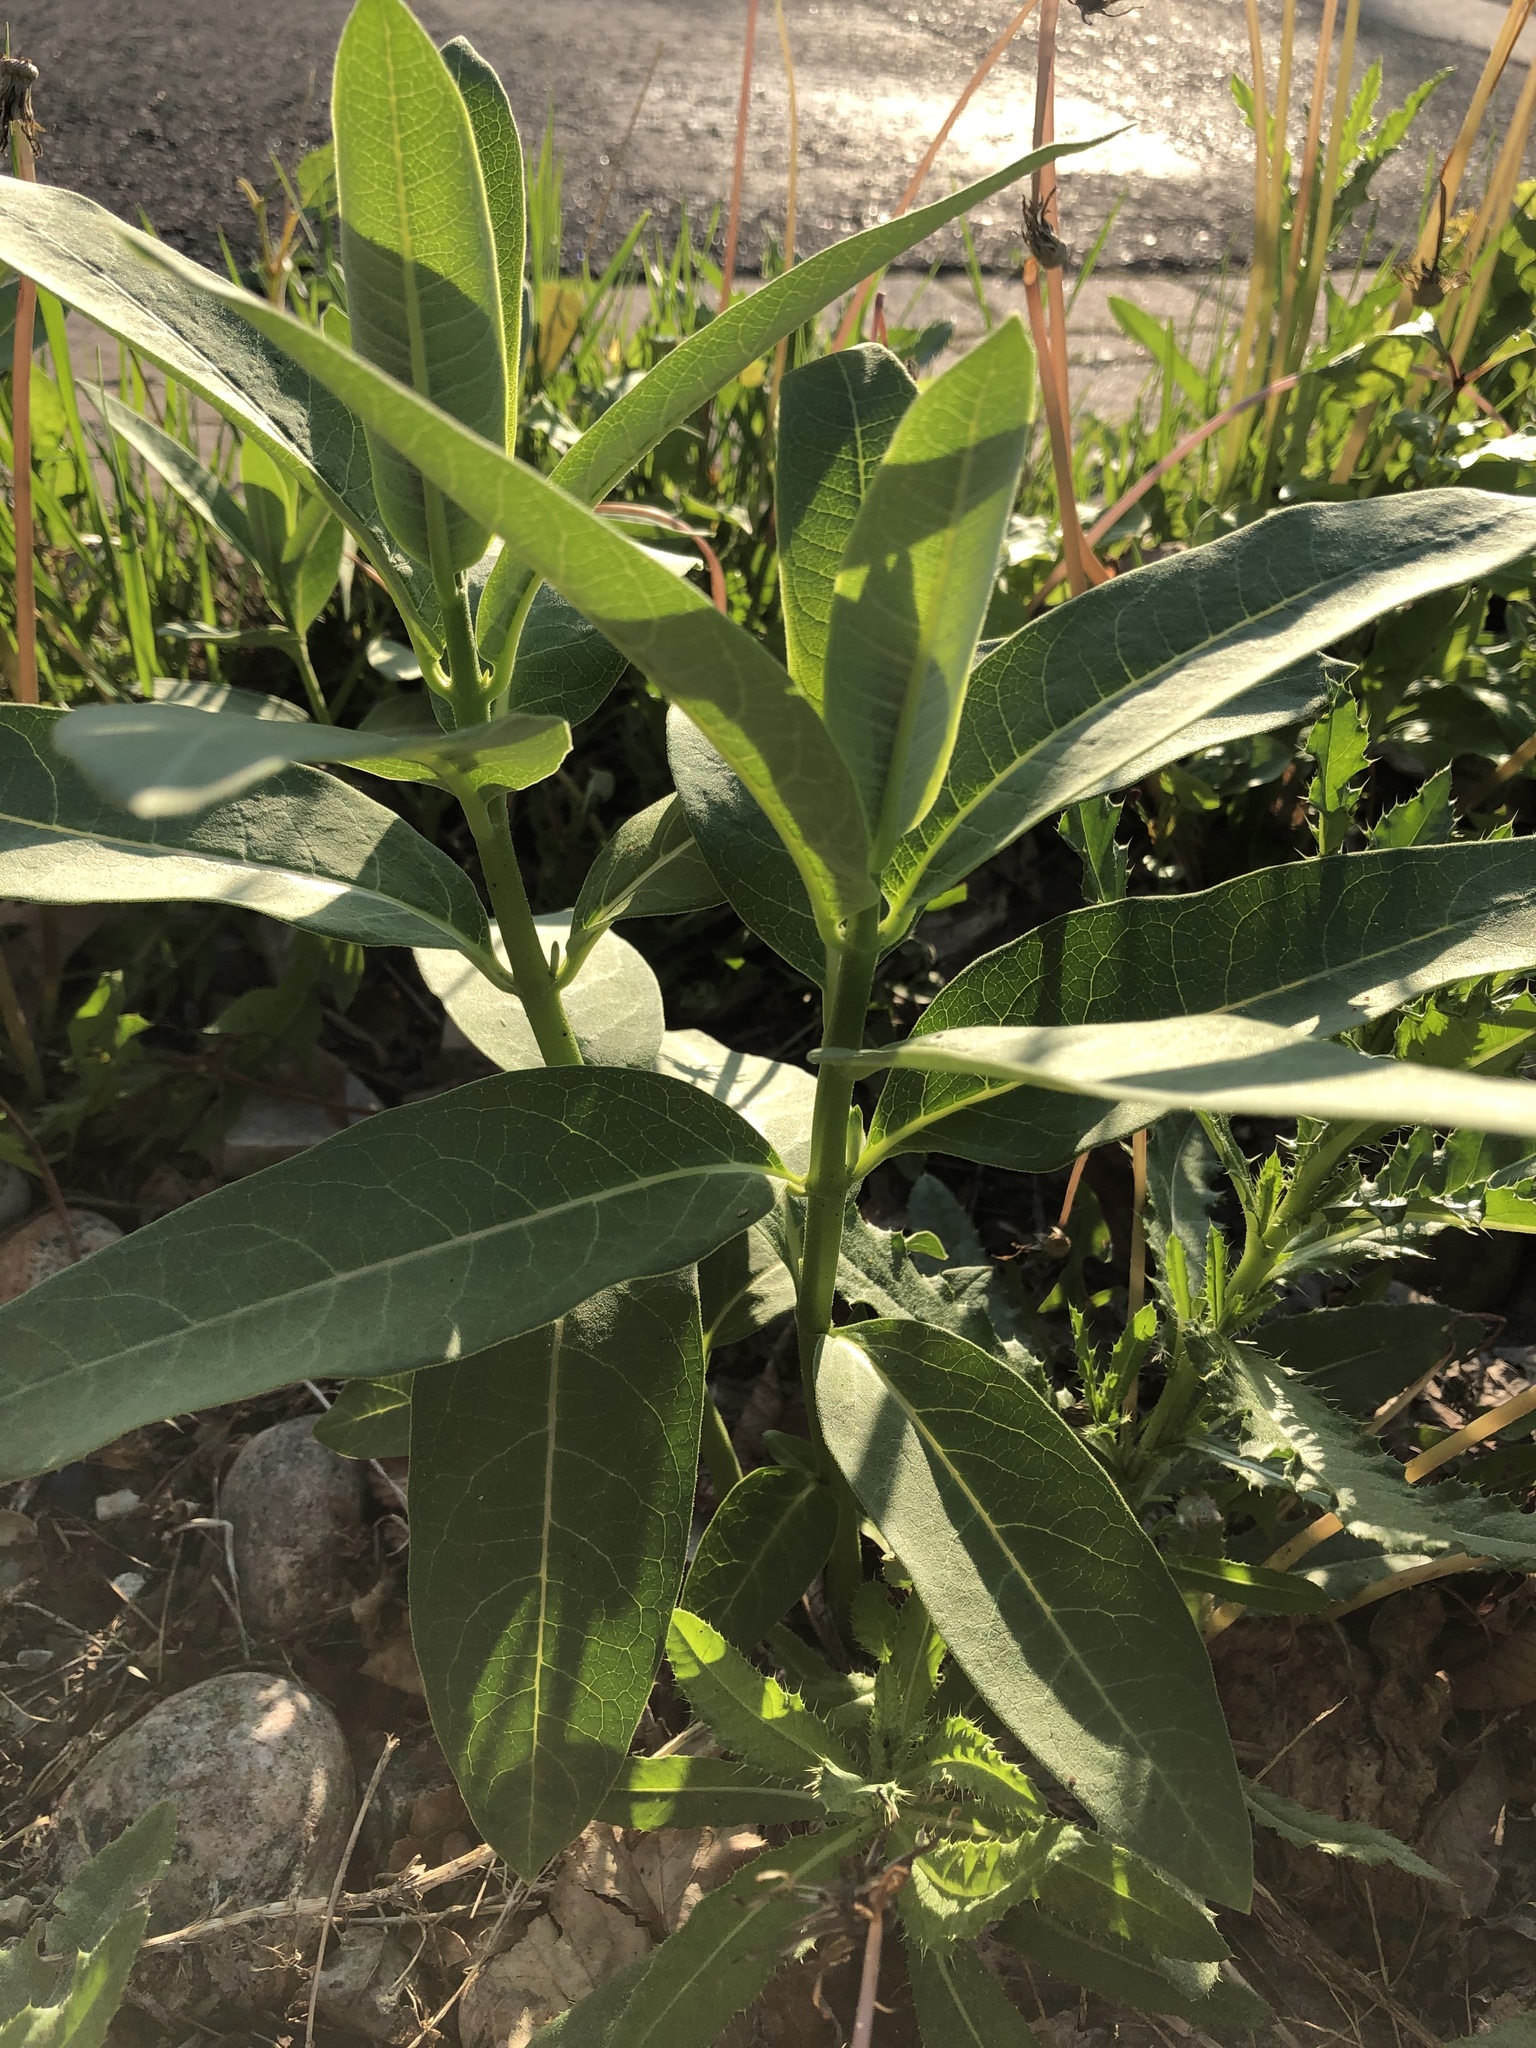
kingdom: Plantae
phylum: Tracheophyta
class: Magnoliopsida
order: Gentianales
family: Apocynaceae
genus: Asclepias
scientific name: Asclepias syriaca
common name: Common milkweed
